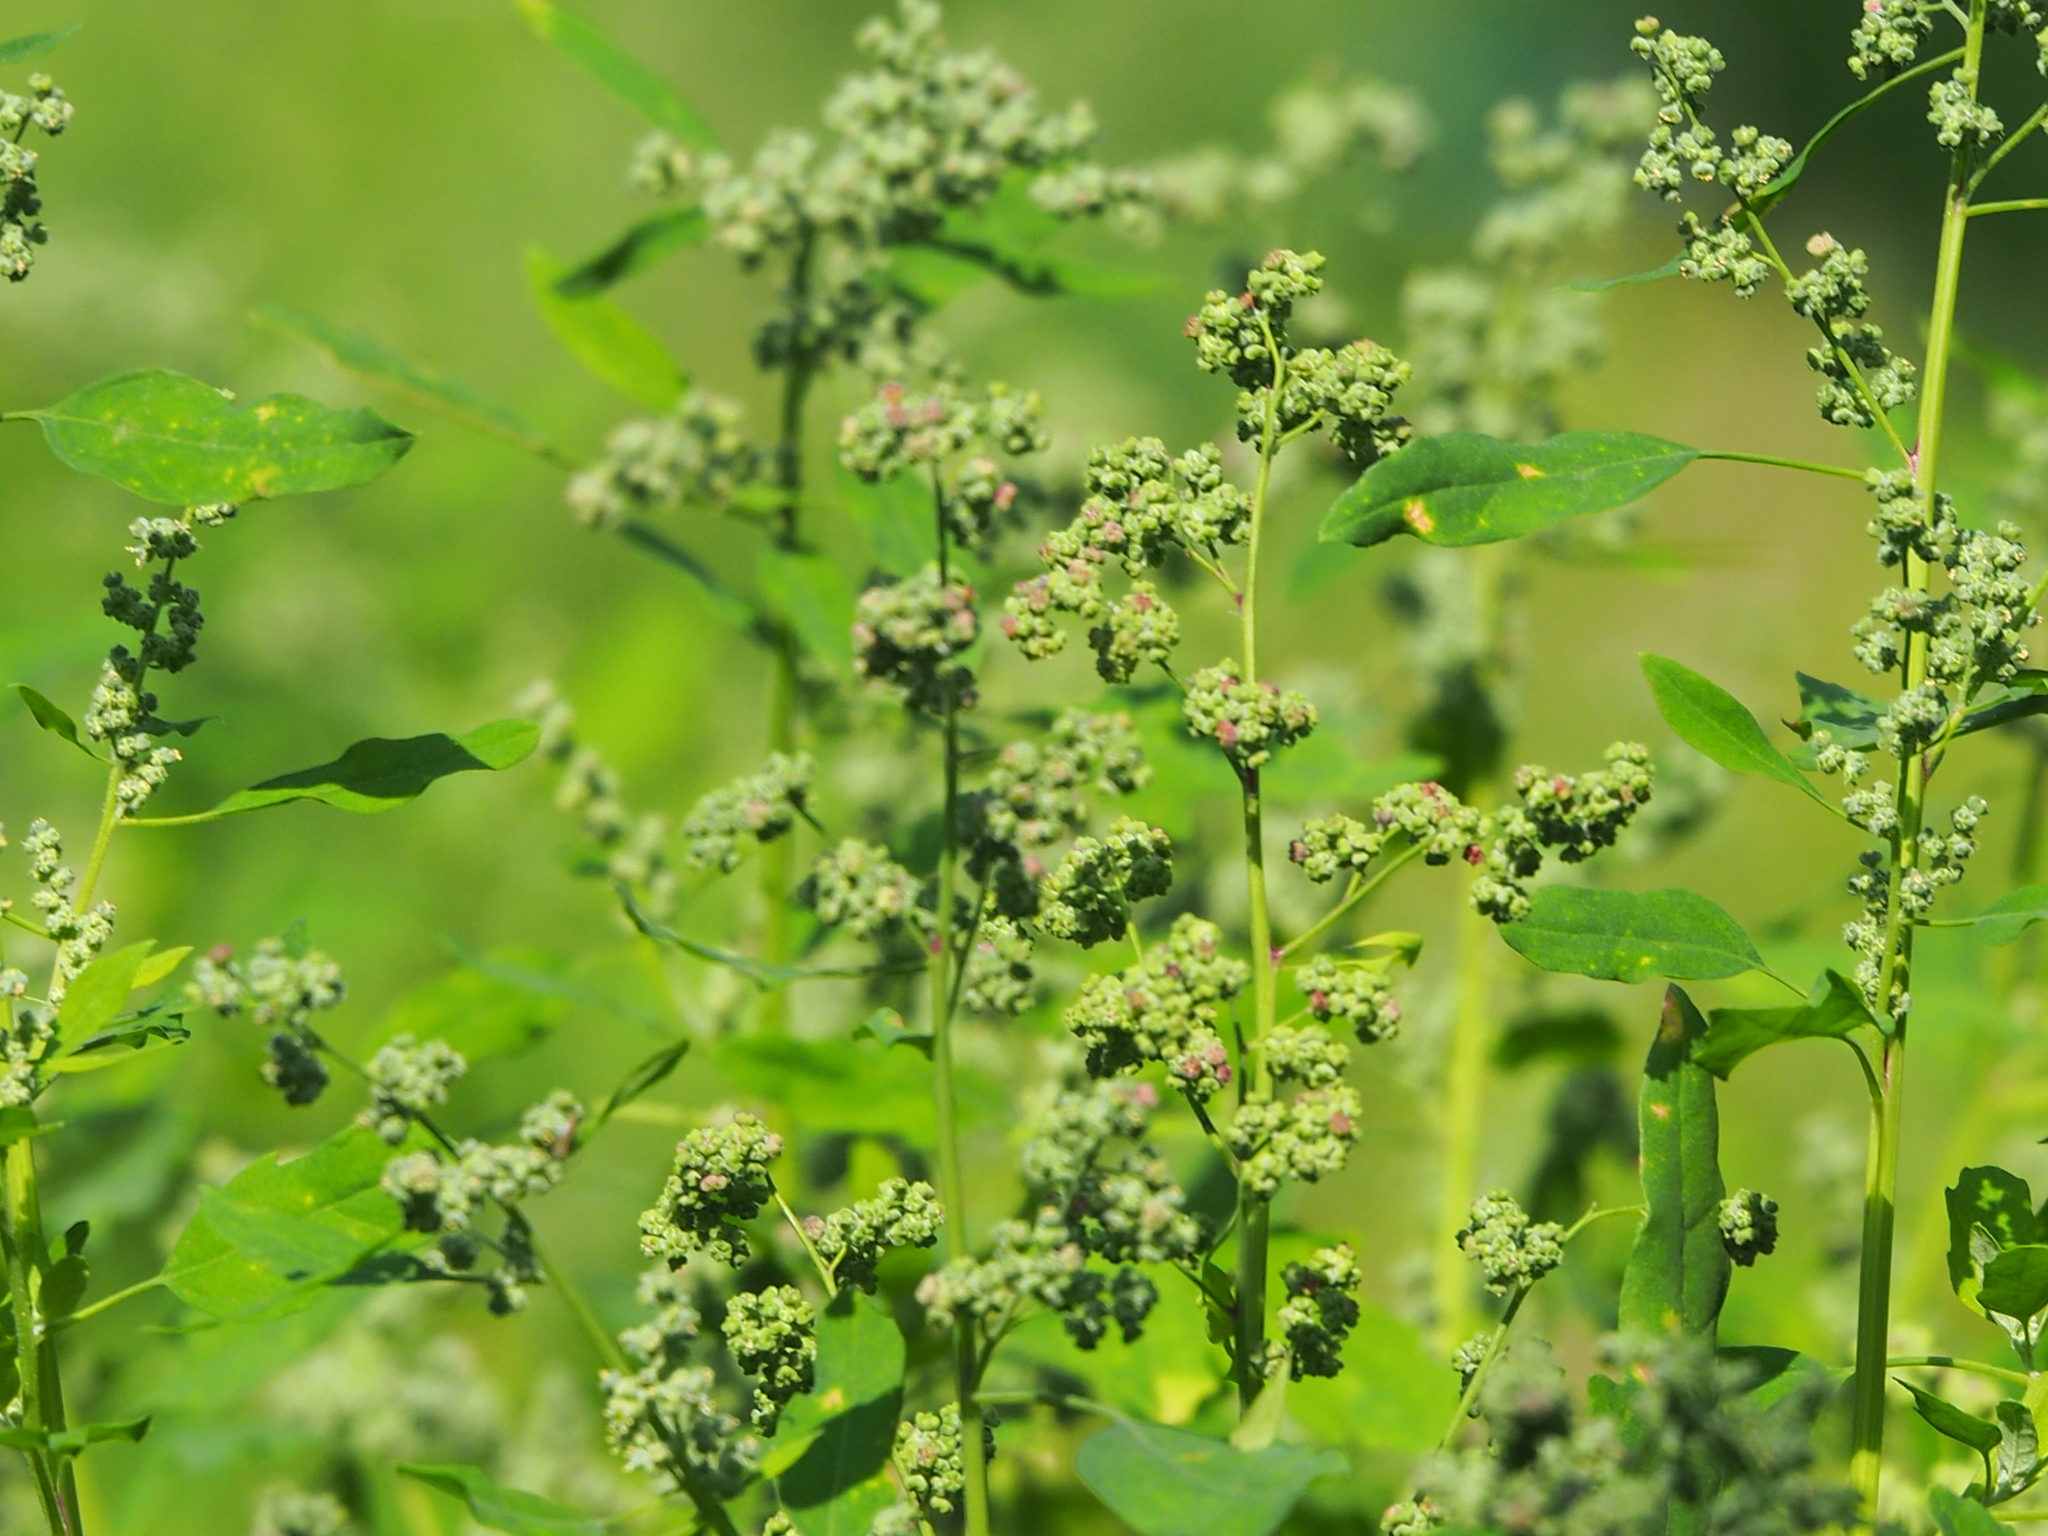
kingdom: Plantae
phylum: Tracheophyta
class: Magnoliopsida
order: Caryophyllales
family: Amaranthaceae
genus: Chenopodium
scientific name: Chenopodium ficifolium
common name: Fig-leaved goosefoot
